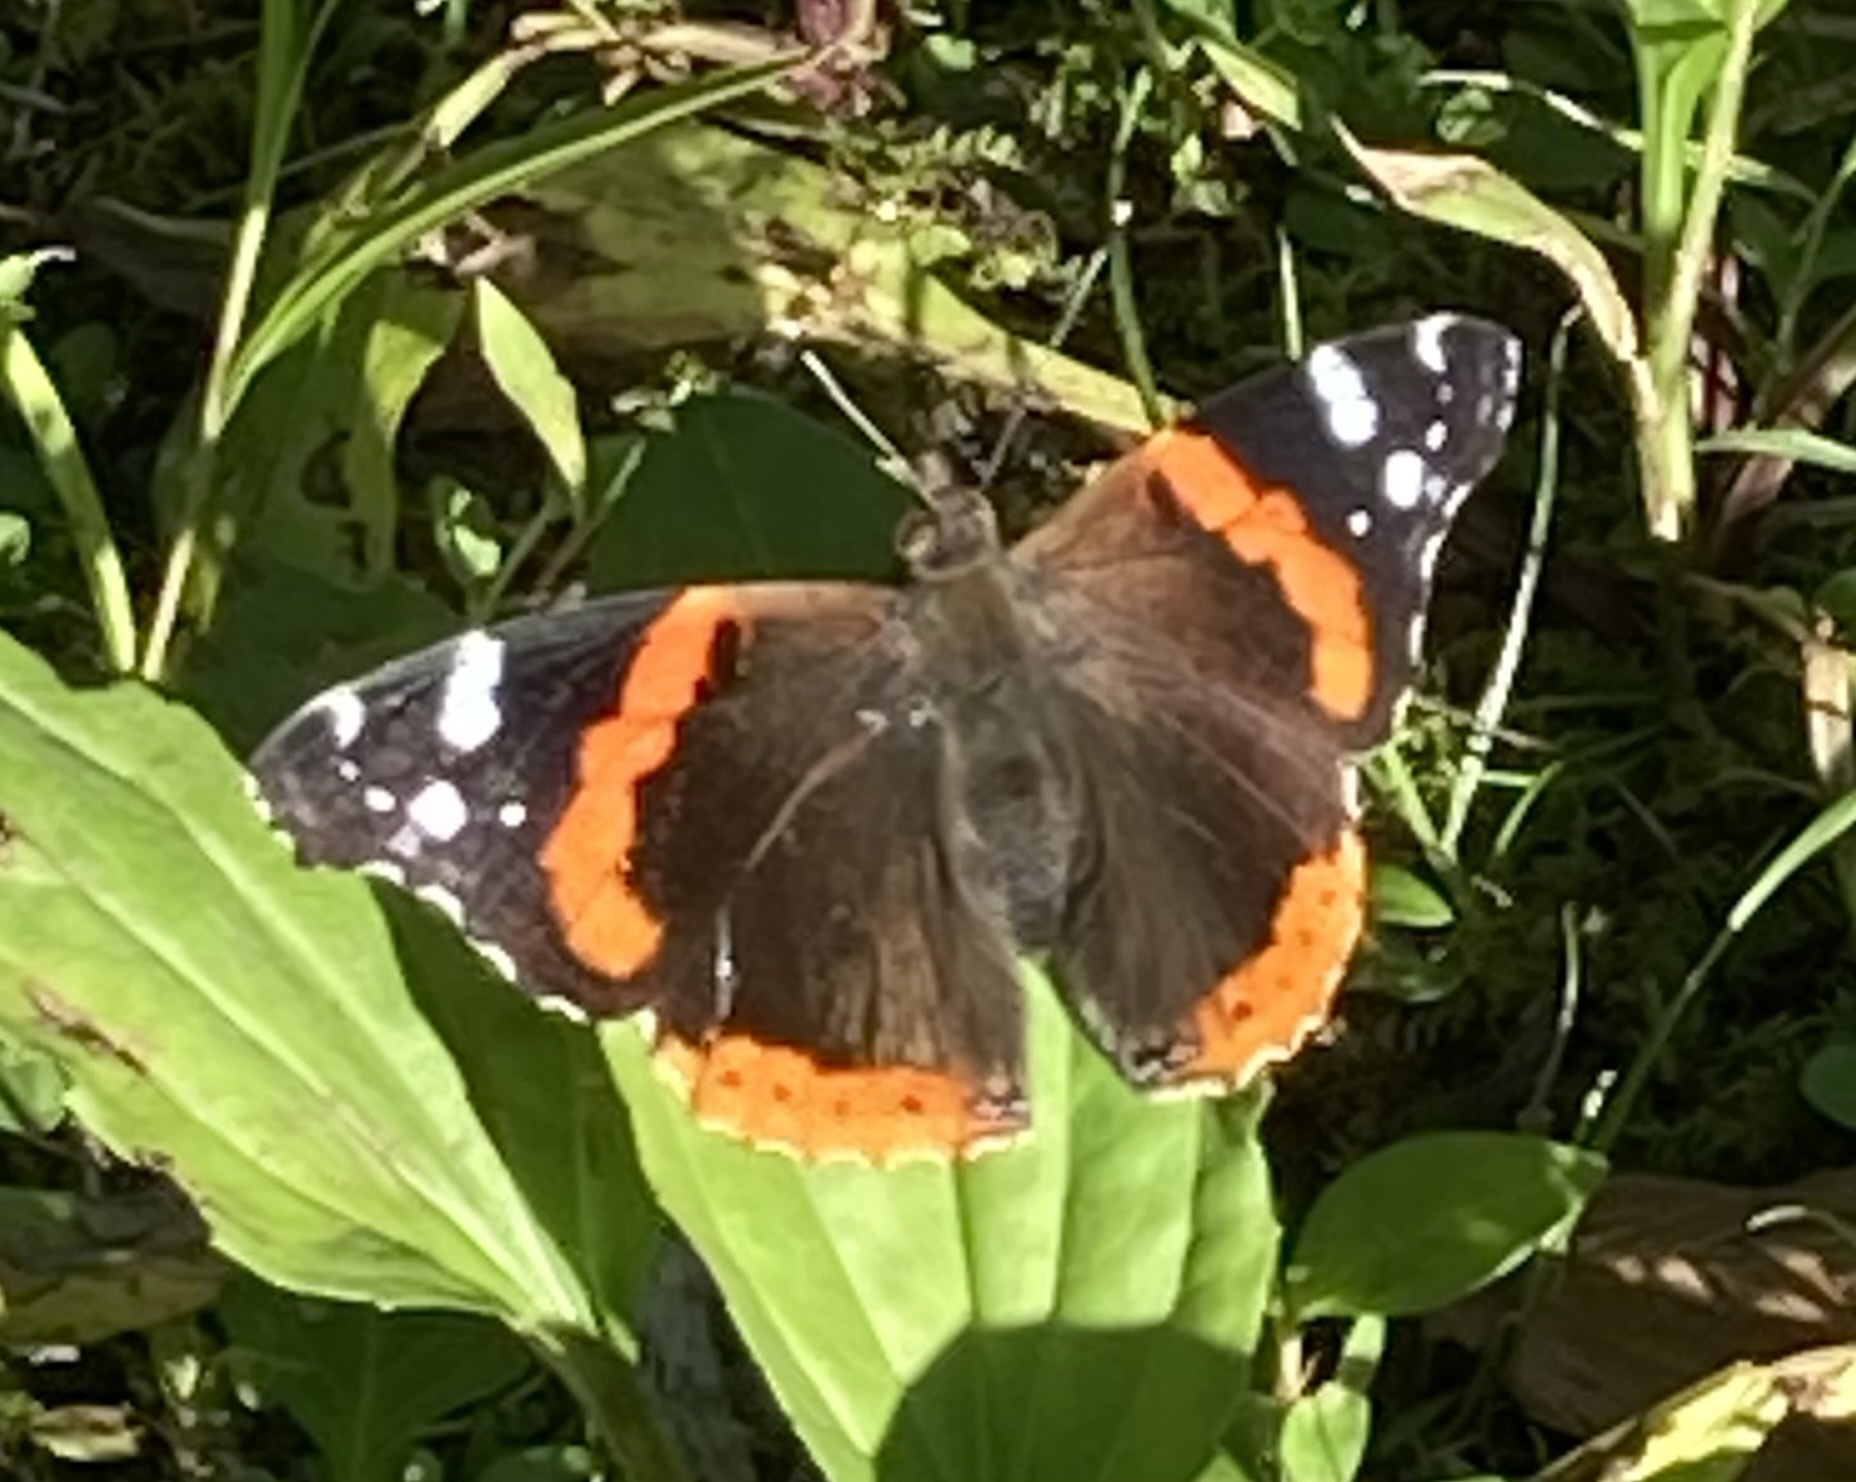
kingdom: Animalia
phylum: Arthropoda
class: Insecta
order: Lepidoptera
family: Nymphalidae
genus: Vanessa
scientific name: Vanessa atalanta
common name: Red admiral
